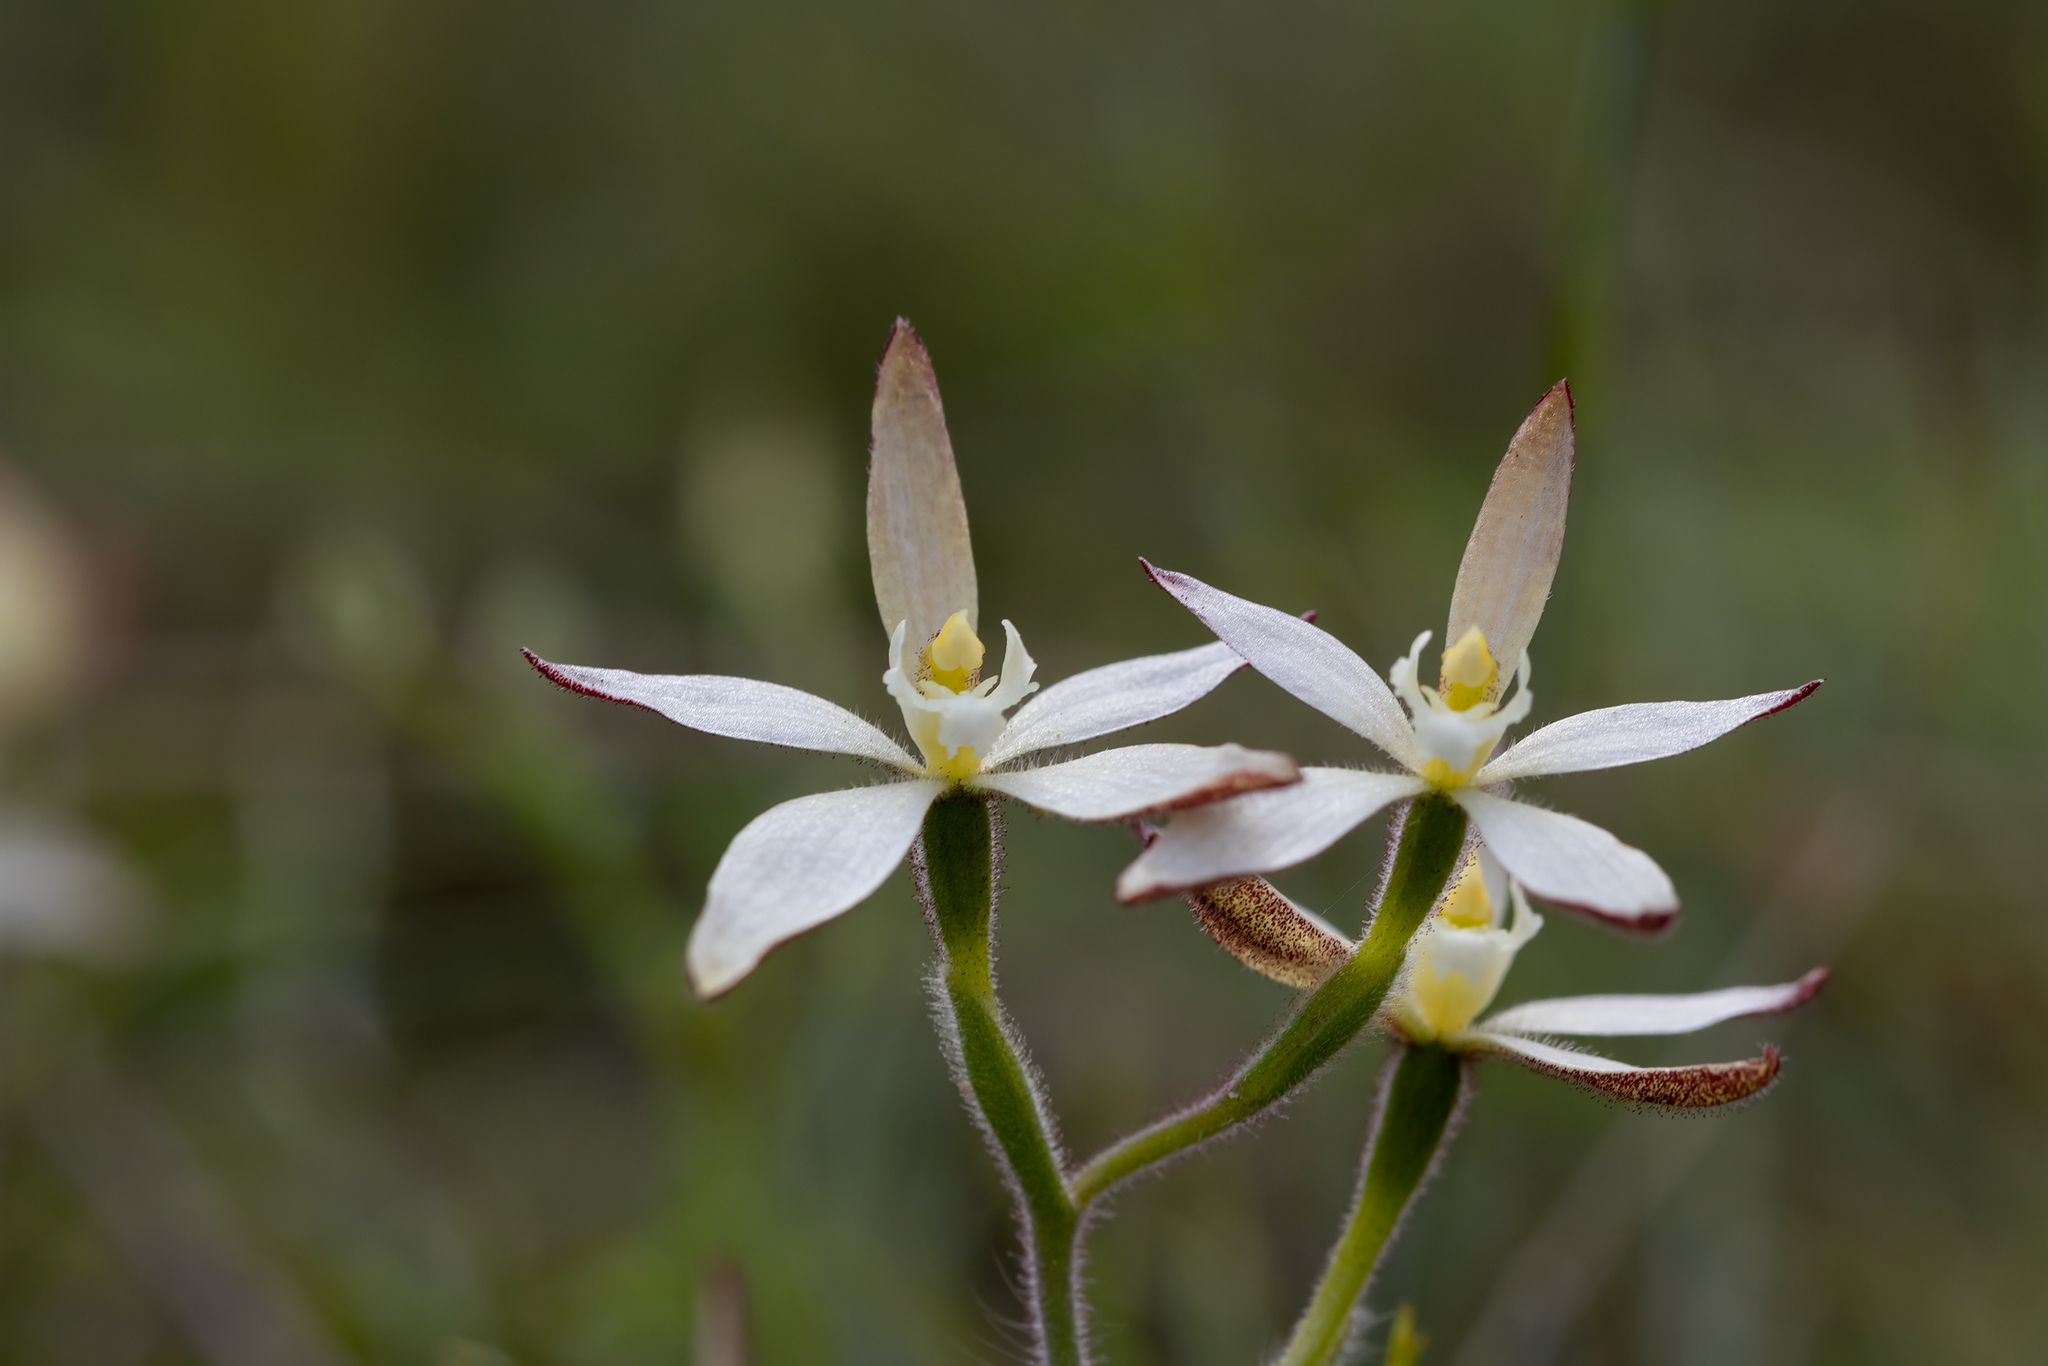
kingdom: Plantae
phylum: Tracheophyta
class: Liliopsida
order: Asparagales
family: Orchidaceae
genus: Caladenia
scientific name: Caladenia marginata
